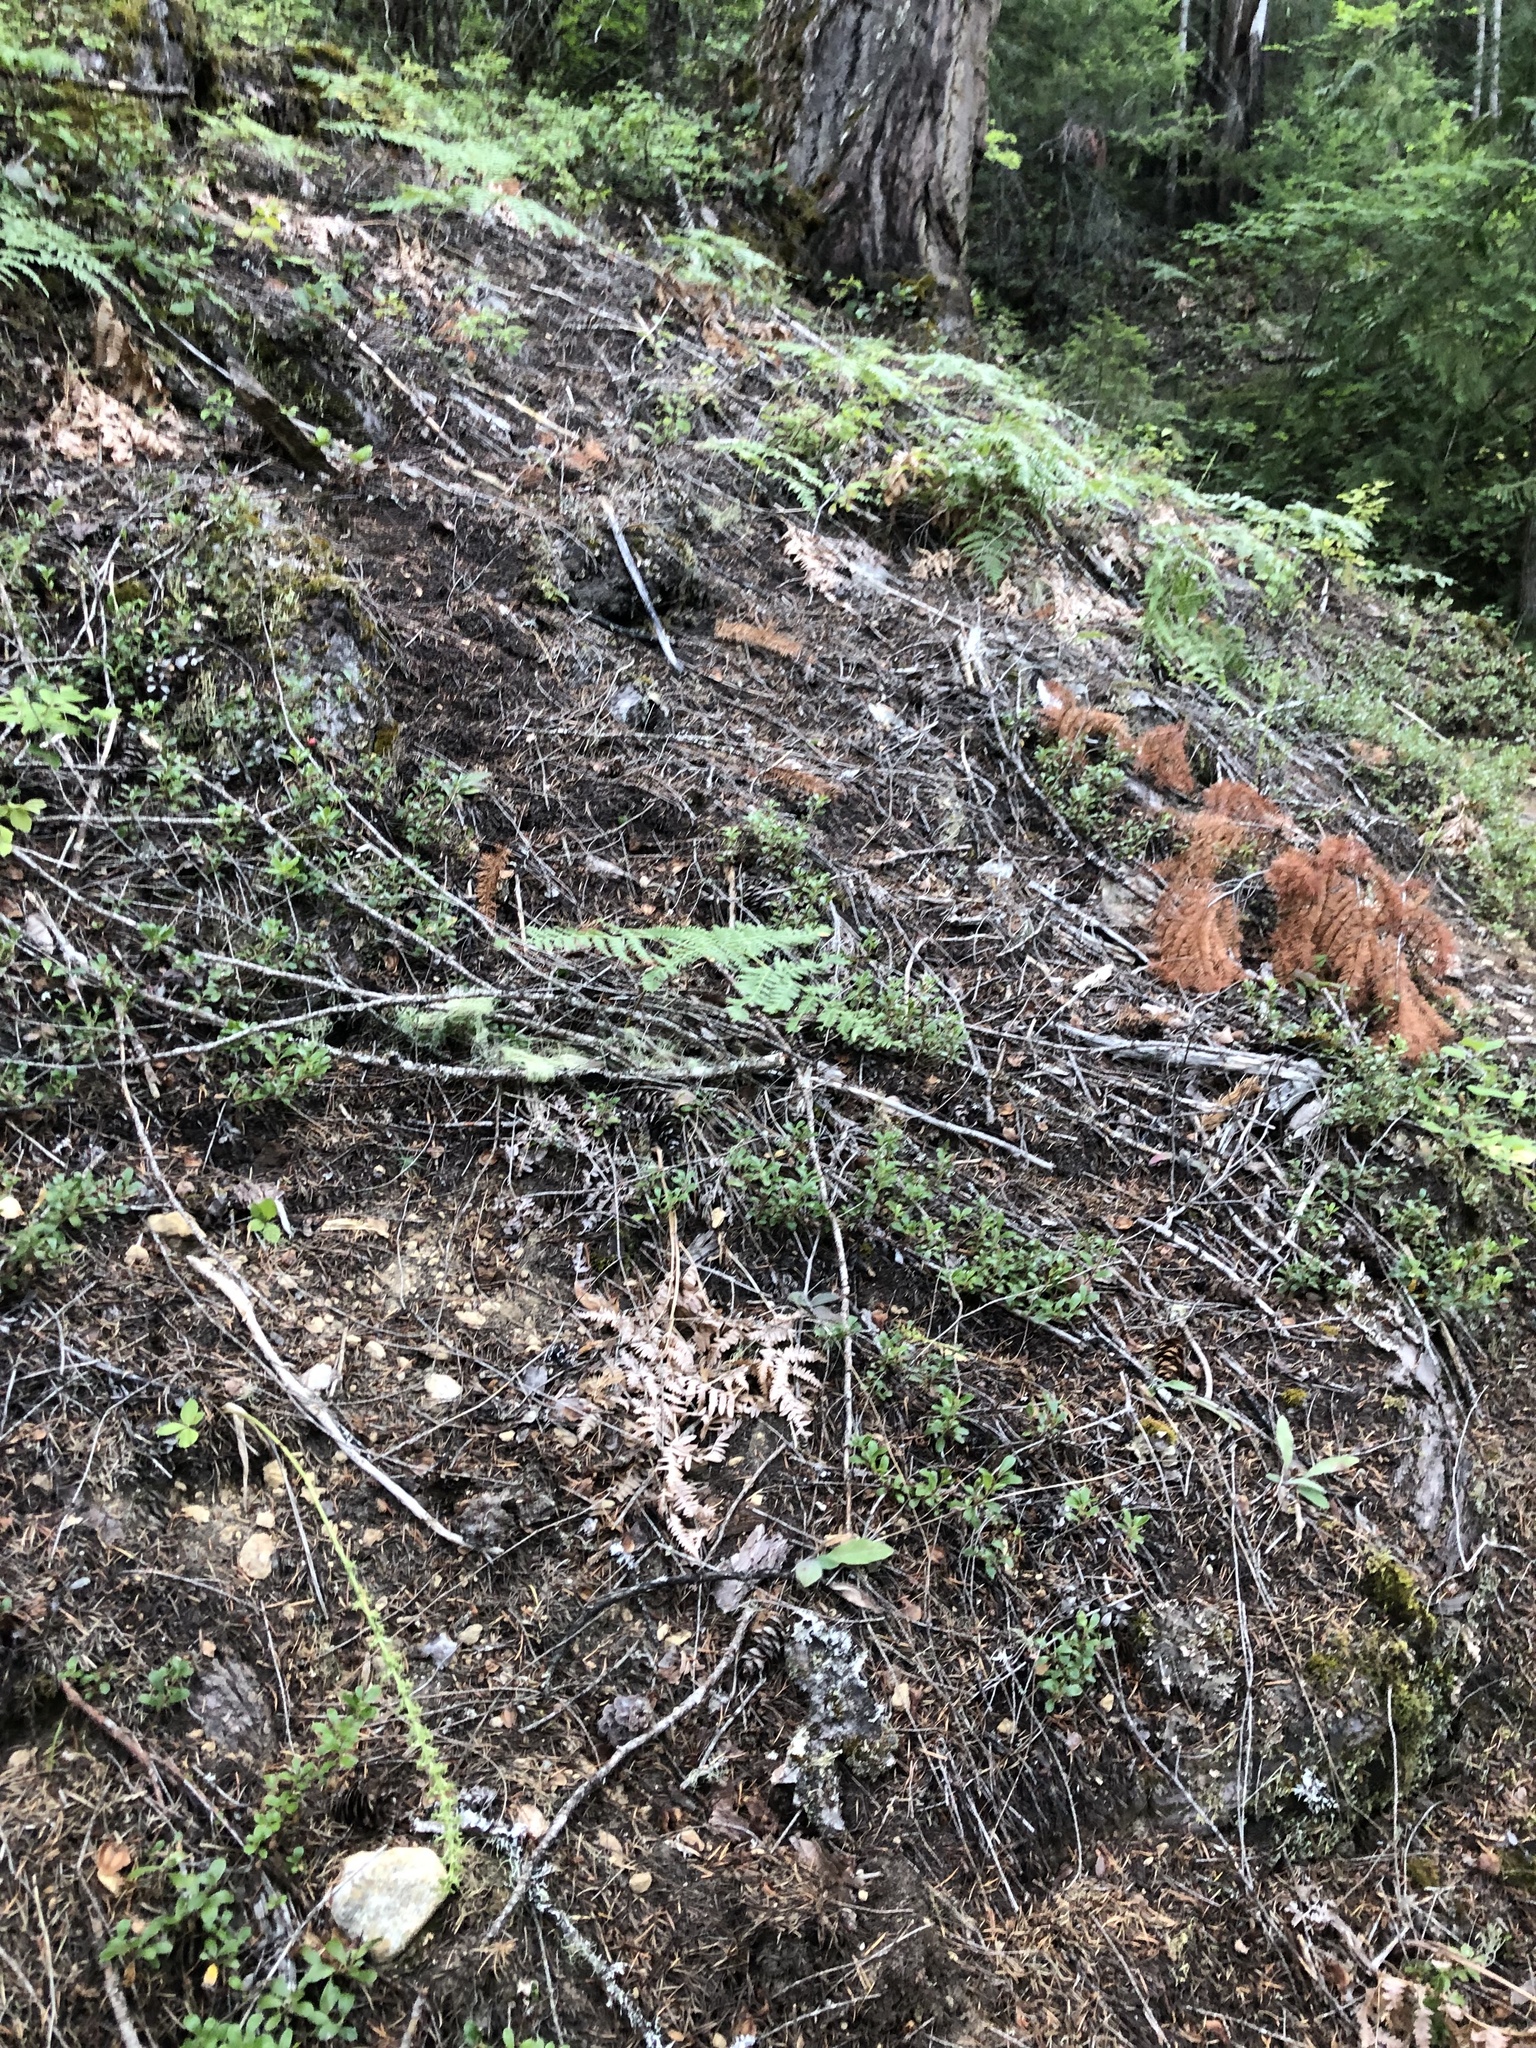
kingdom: Plantae
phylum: Tracheophyta
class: Magnoliopsida
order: Ericales
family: Ericaceae
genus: Arctostaphylos
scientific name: Arctostaphylos uva-ursi
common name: Bearberry
